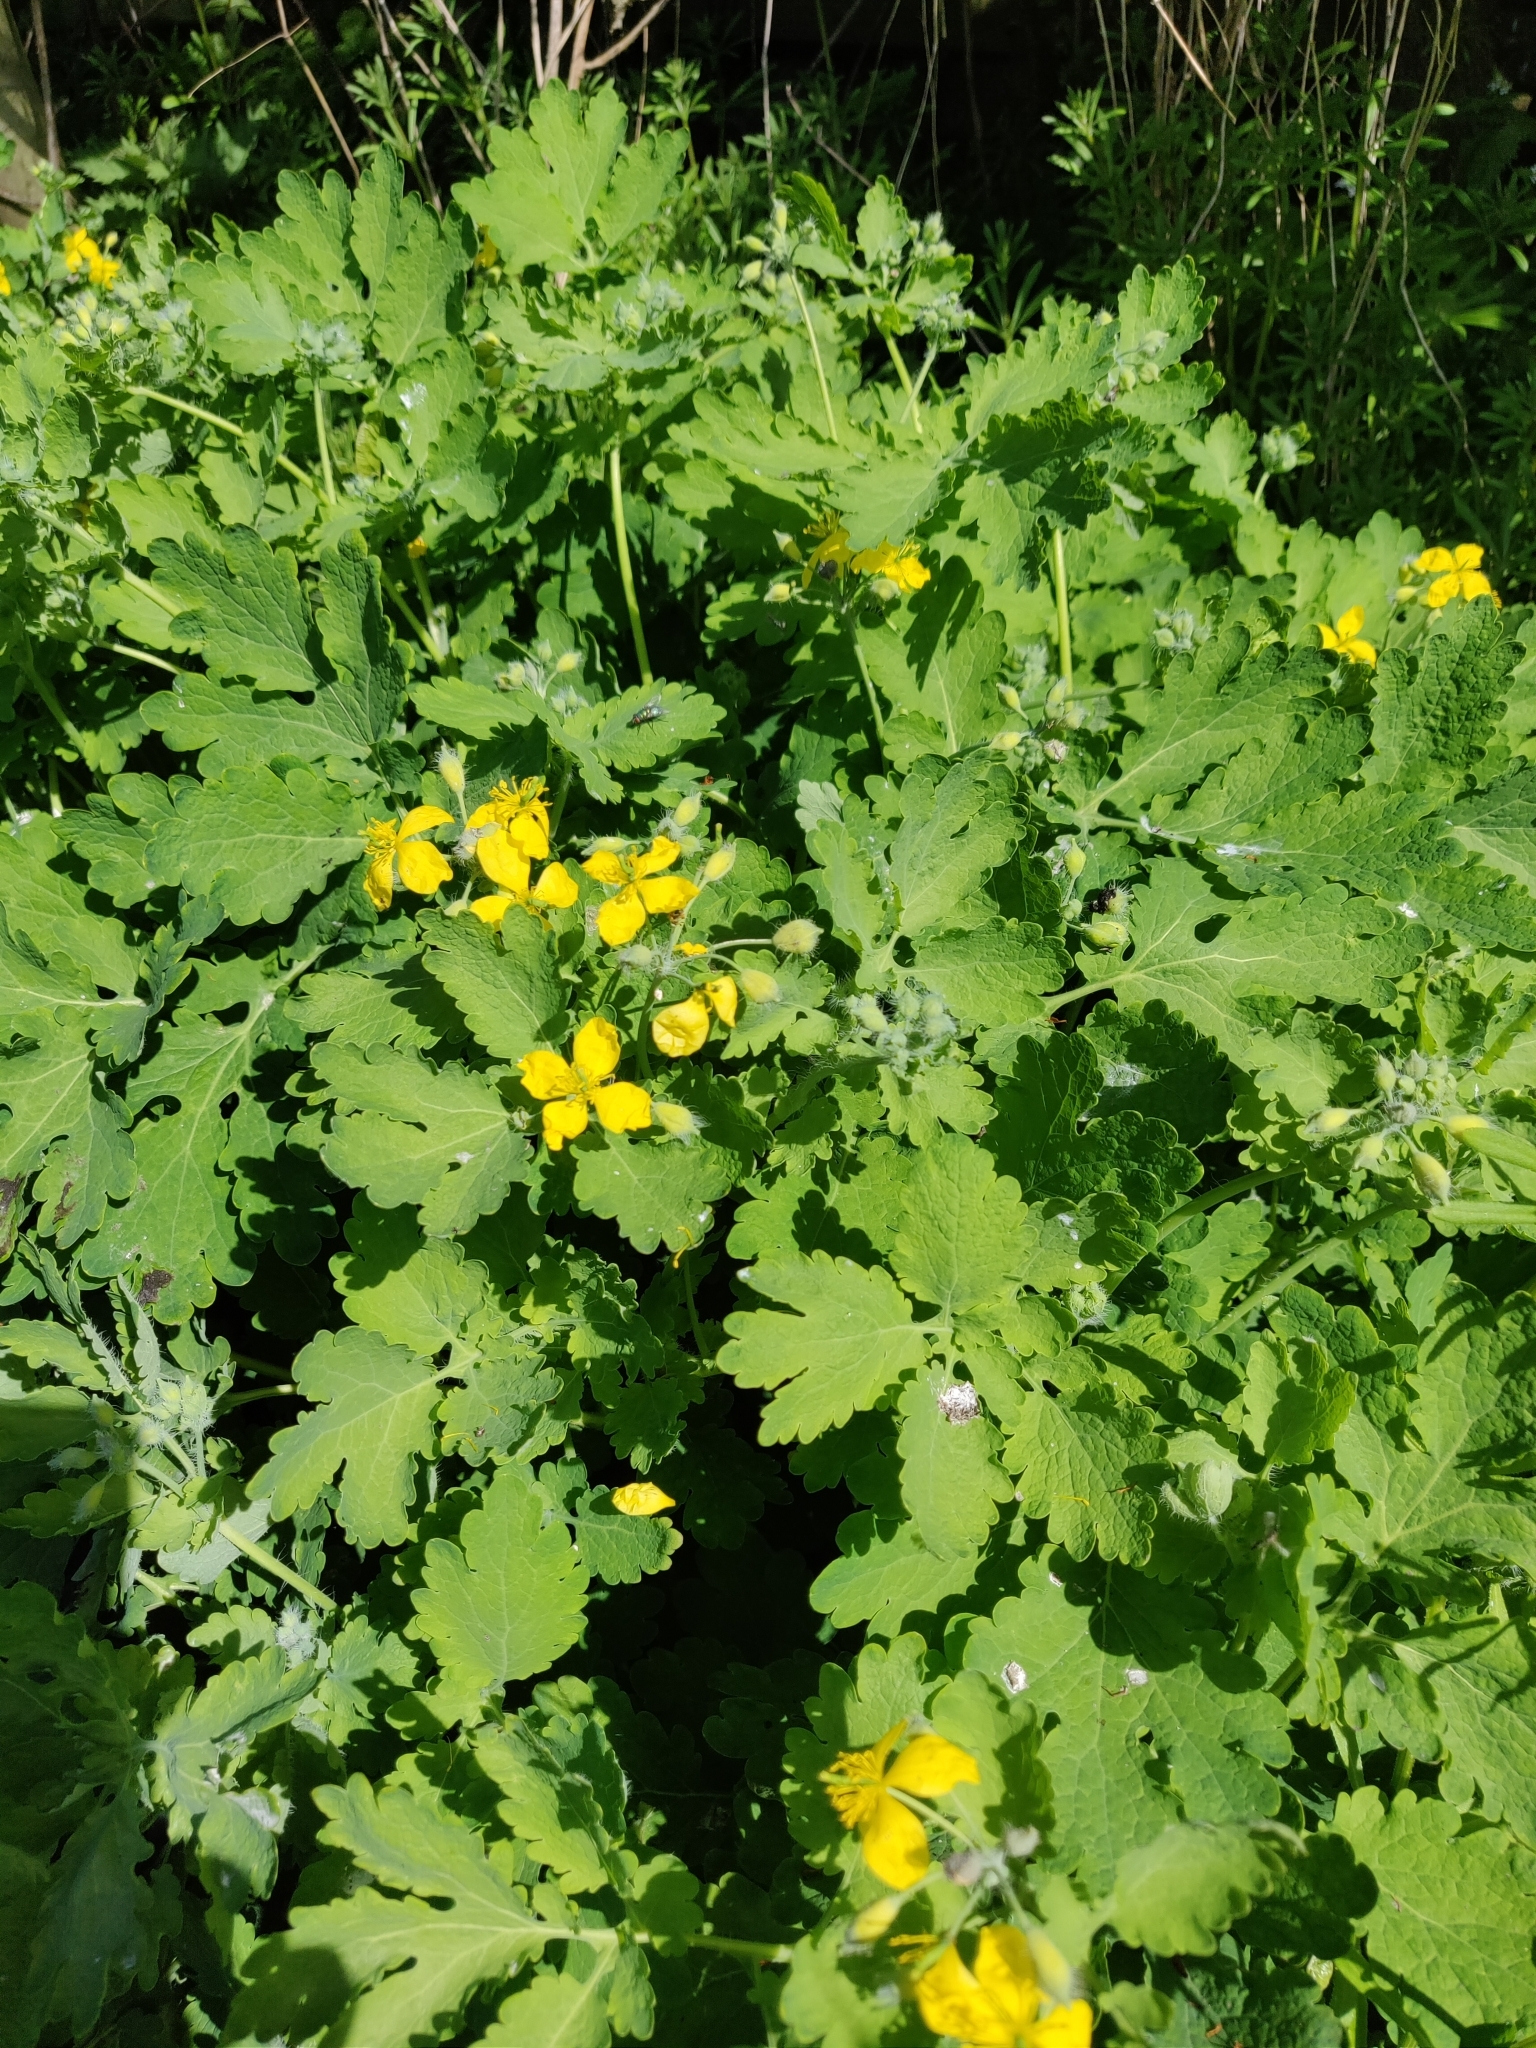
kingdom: Plantae
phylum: Tracheophyta
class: Magnoliopsida
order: Ranunculales
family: Papaveraceae
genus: Chelidonium
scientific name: Chelidonium majus
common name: Greater celandine
